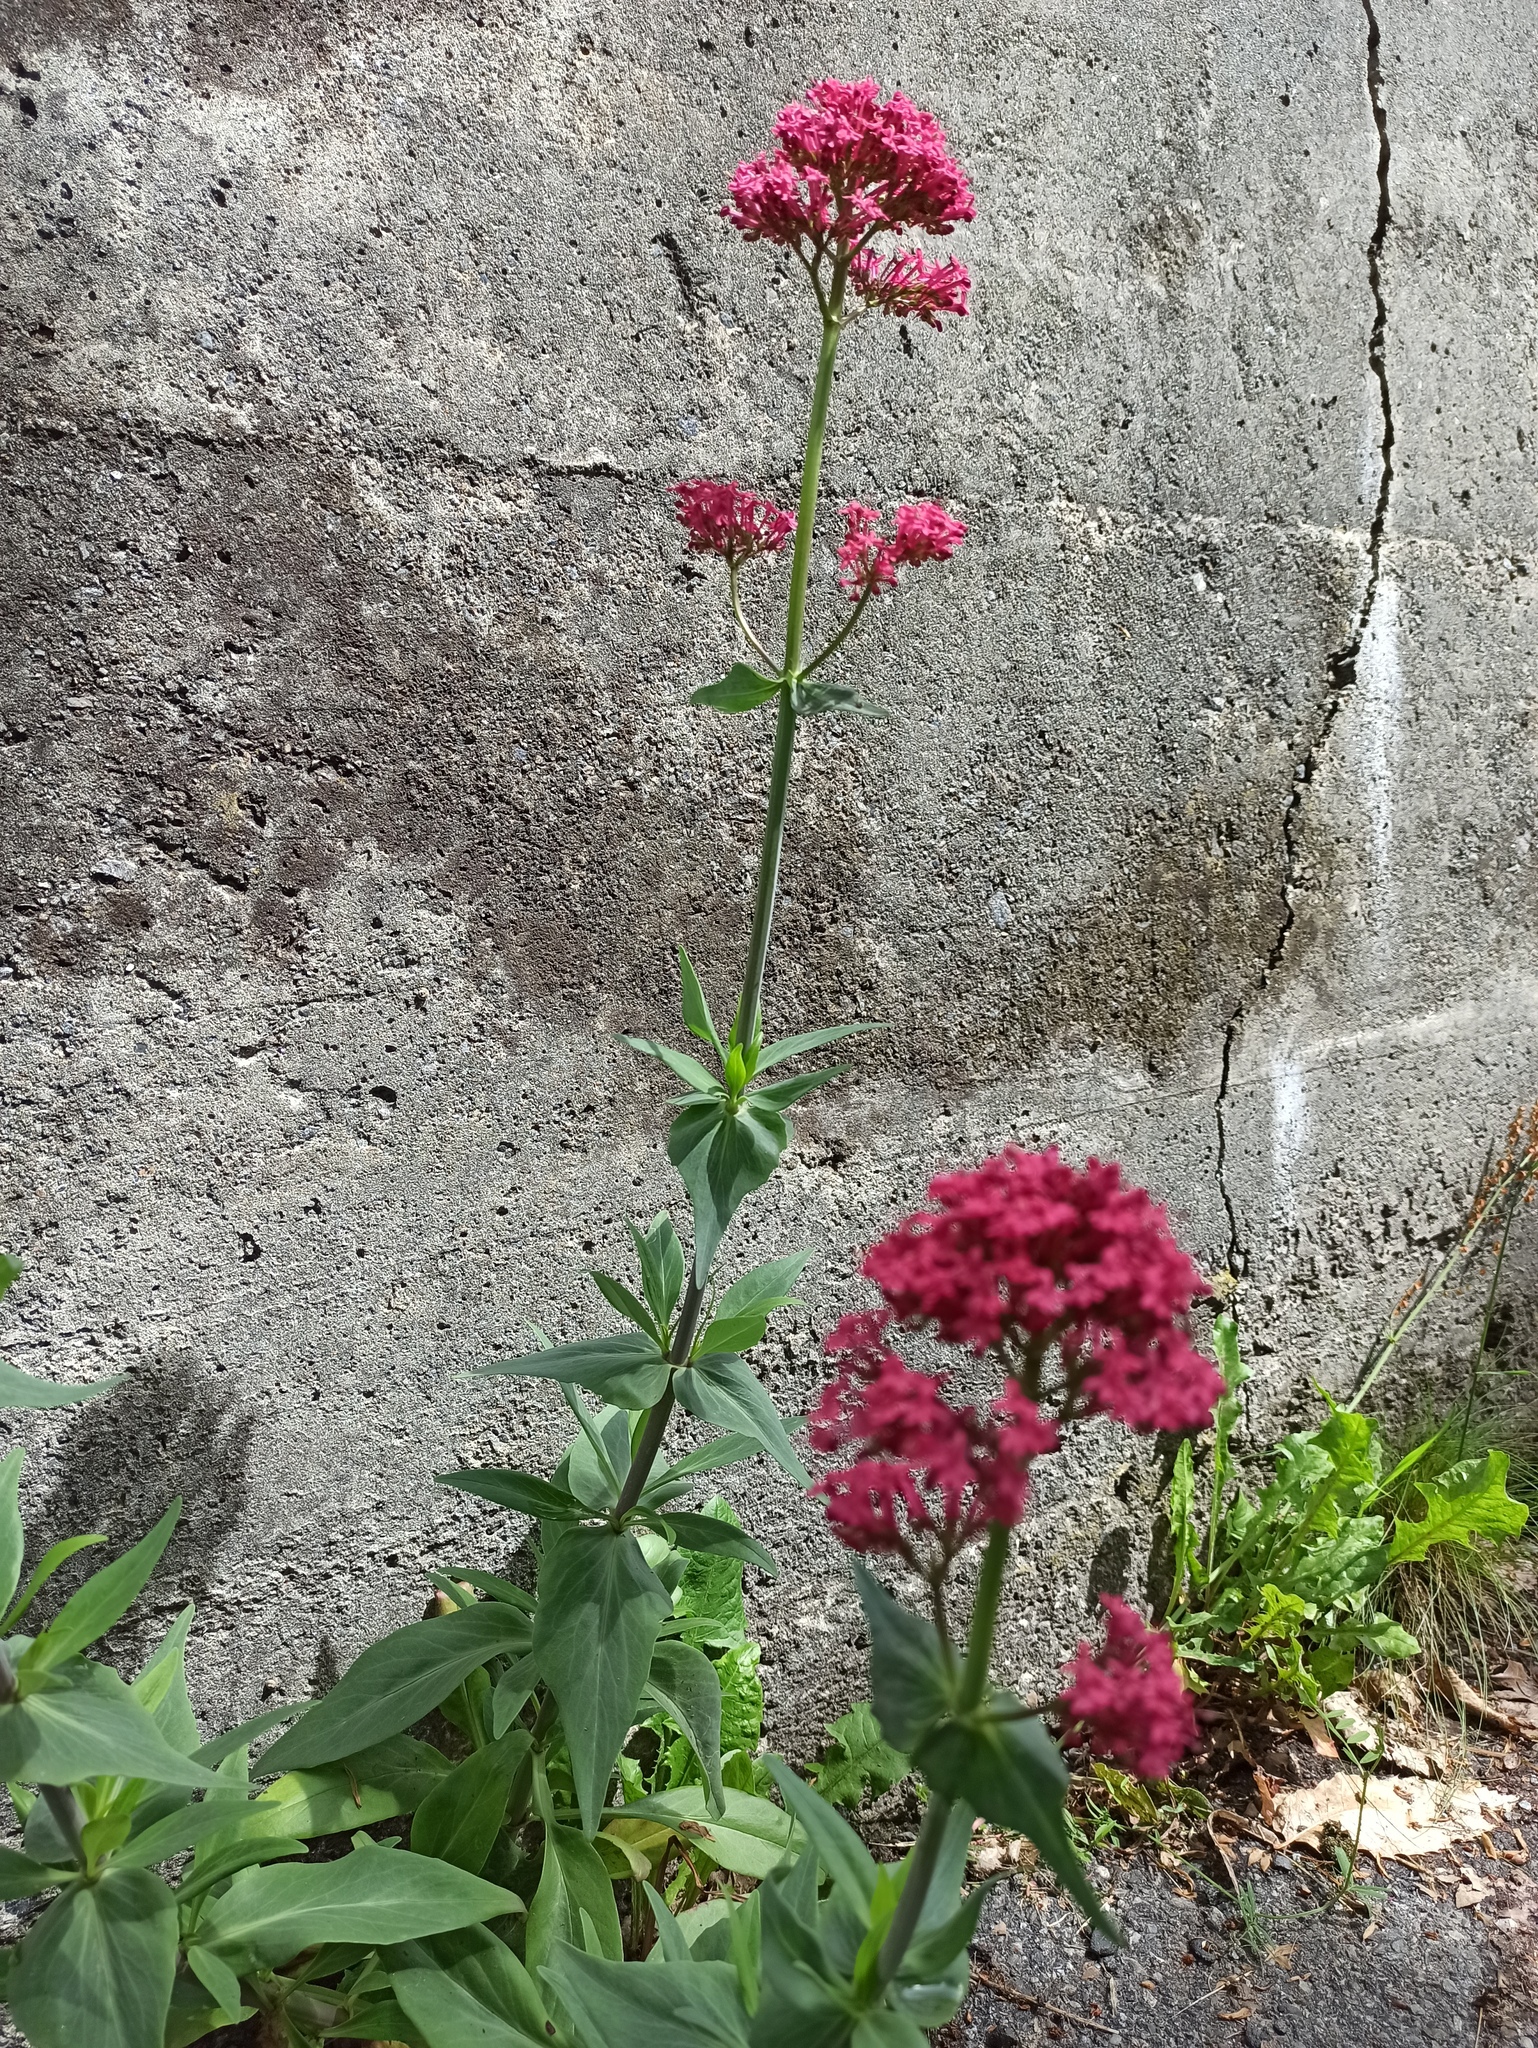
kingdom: Plantae
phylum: Tracheophyta
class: Magnoliopsida
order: Dipsacales
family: Caprifoliaceae
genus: Centranthus
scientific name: Centranthus ruber
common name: Red valerian
